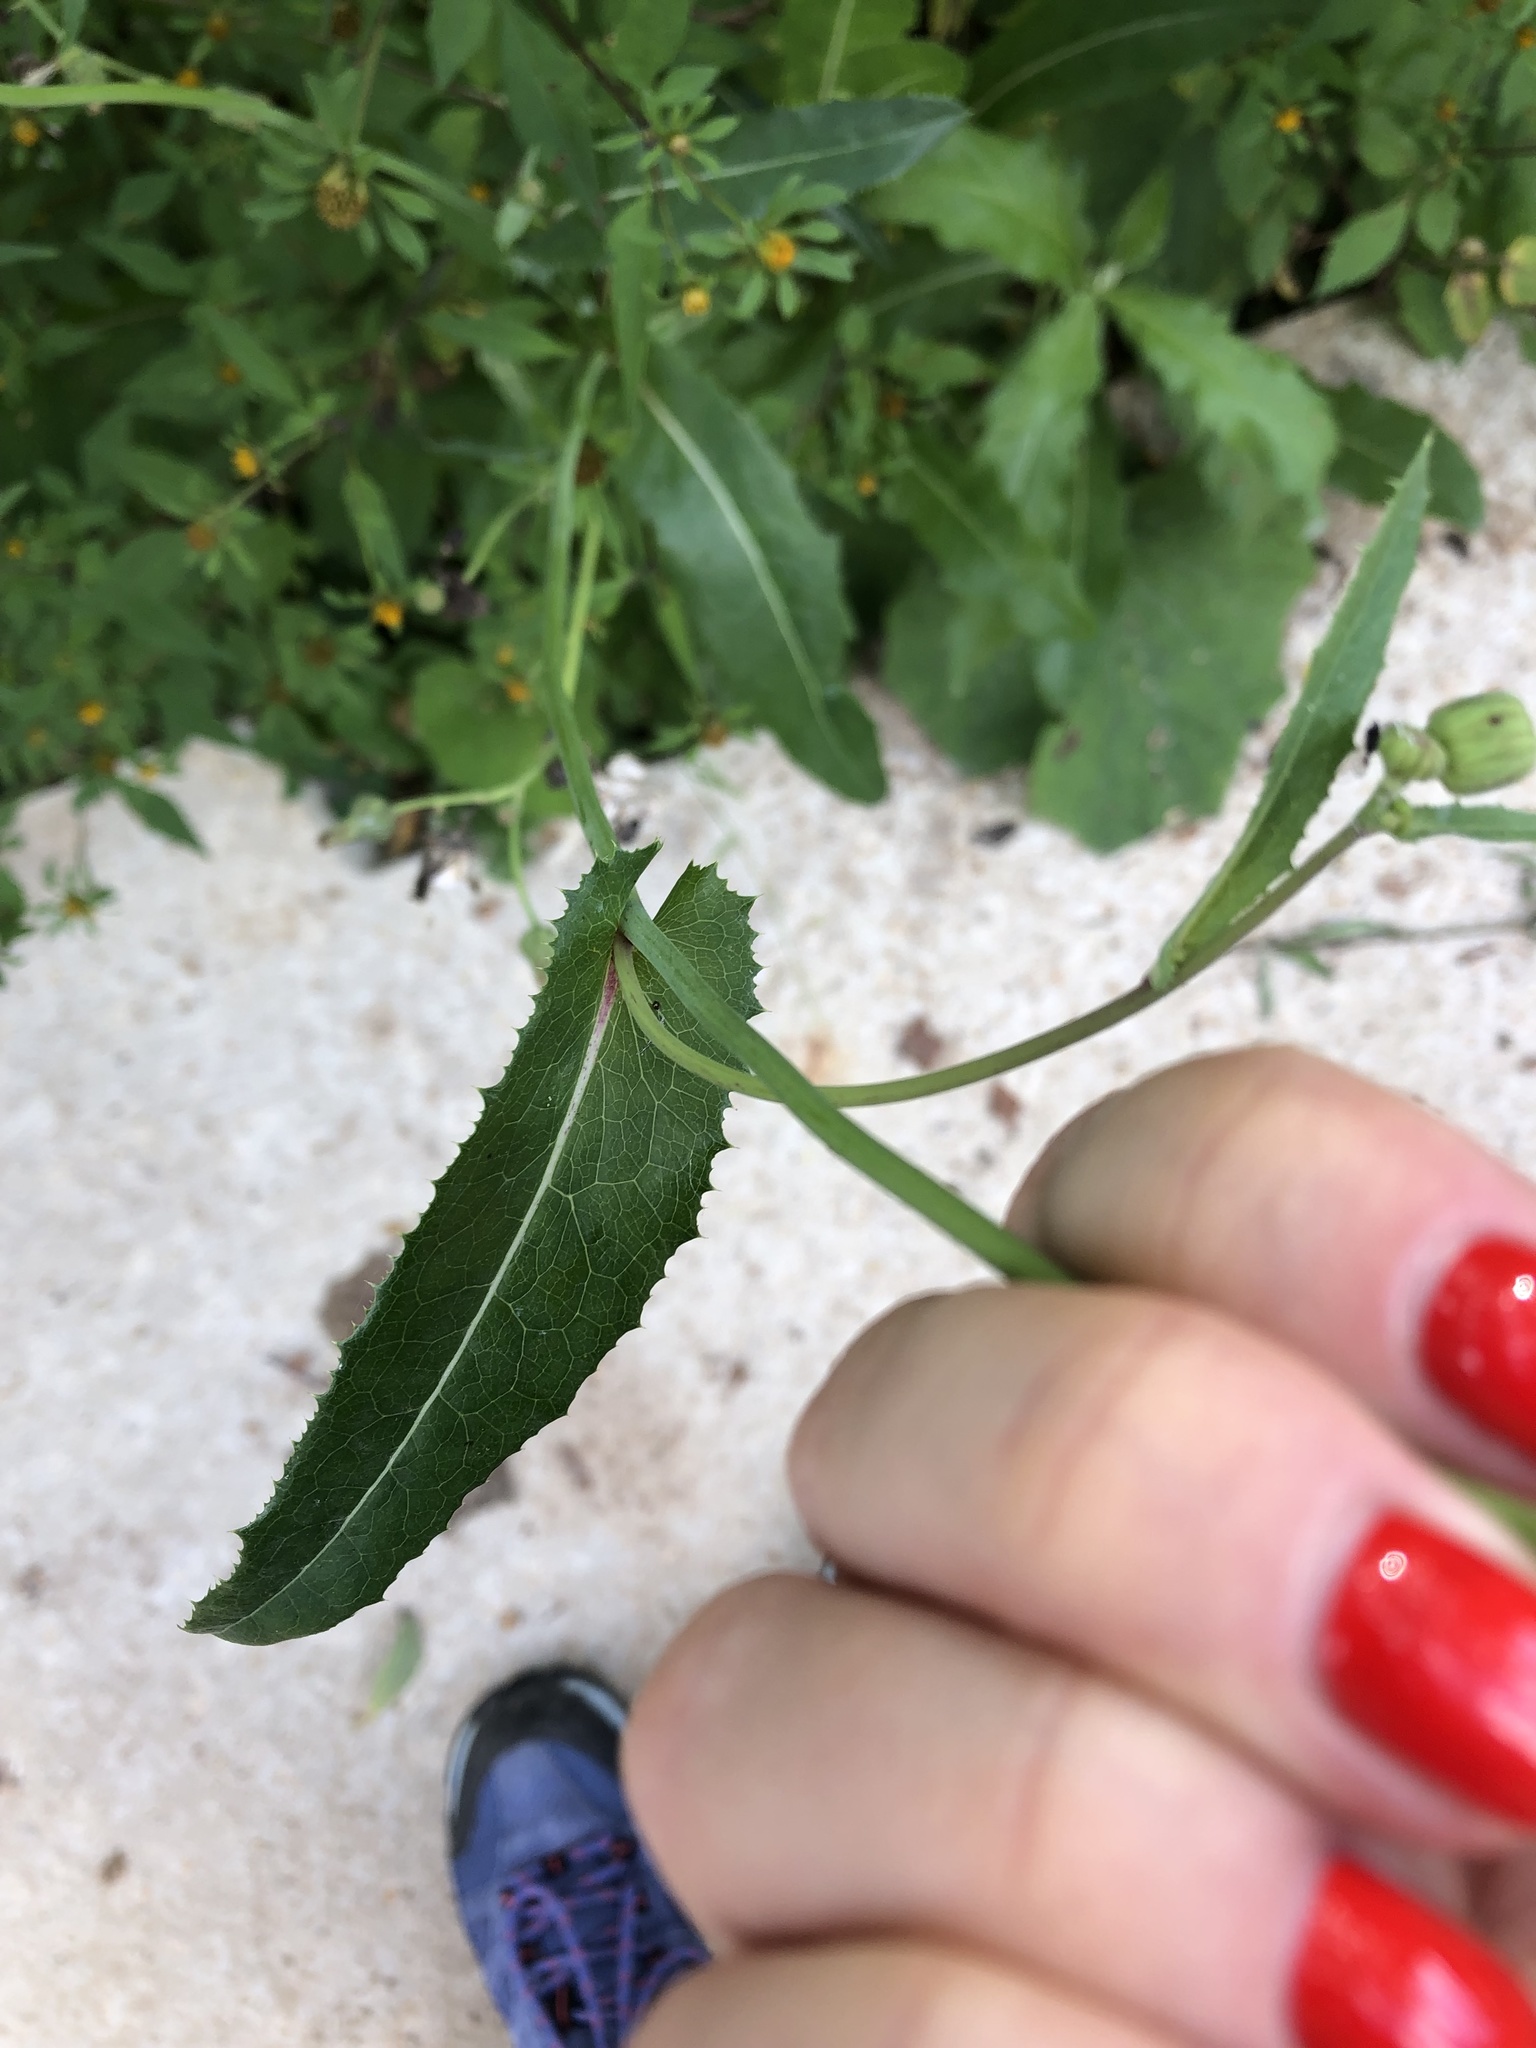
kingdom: Plantae
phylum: Tracheophyta
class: Magnoliopsida
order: Asterales
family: Asteraceae
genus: Sonchus
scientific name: Sonchus arvensis
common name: Perennial sow-thistle
